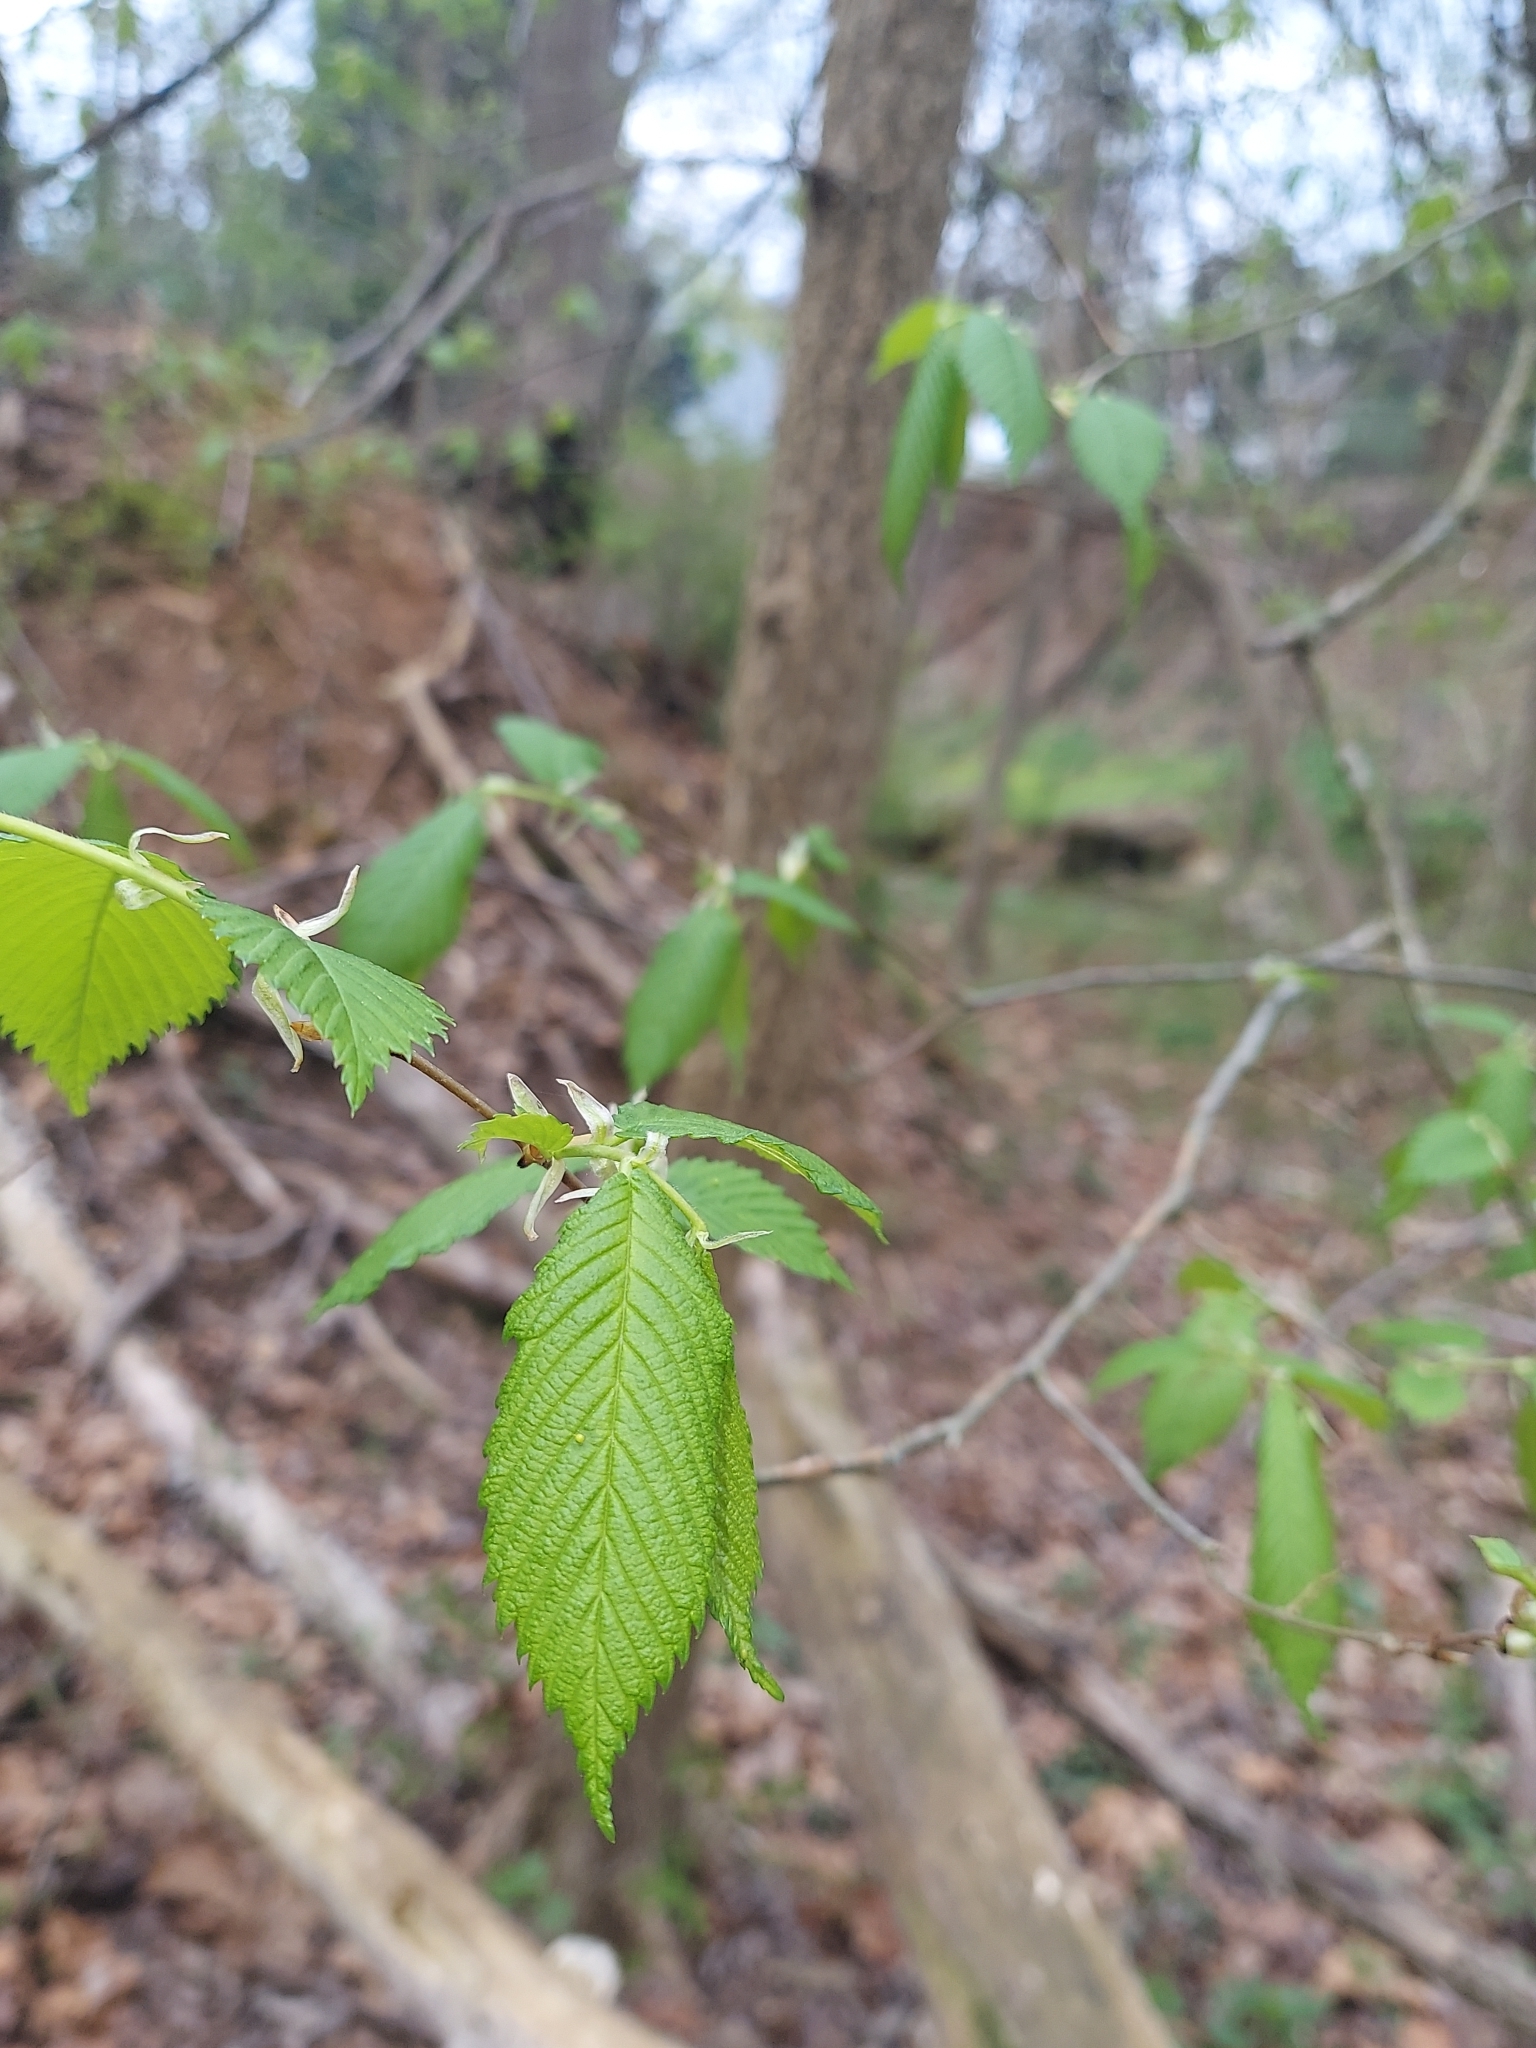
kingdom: Plantae
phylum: Tracheophyta
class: Magnoliopsida
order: Rosales
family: Ulmaceae
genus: Ulmus
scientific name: Ulmus americana
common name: American elm
